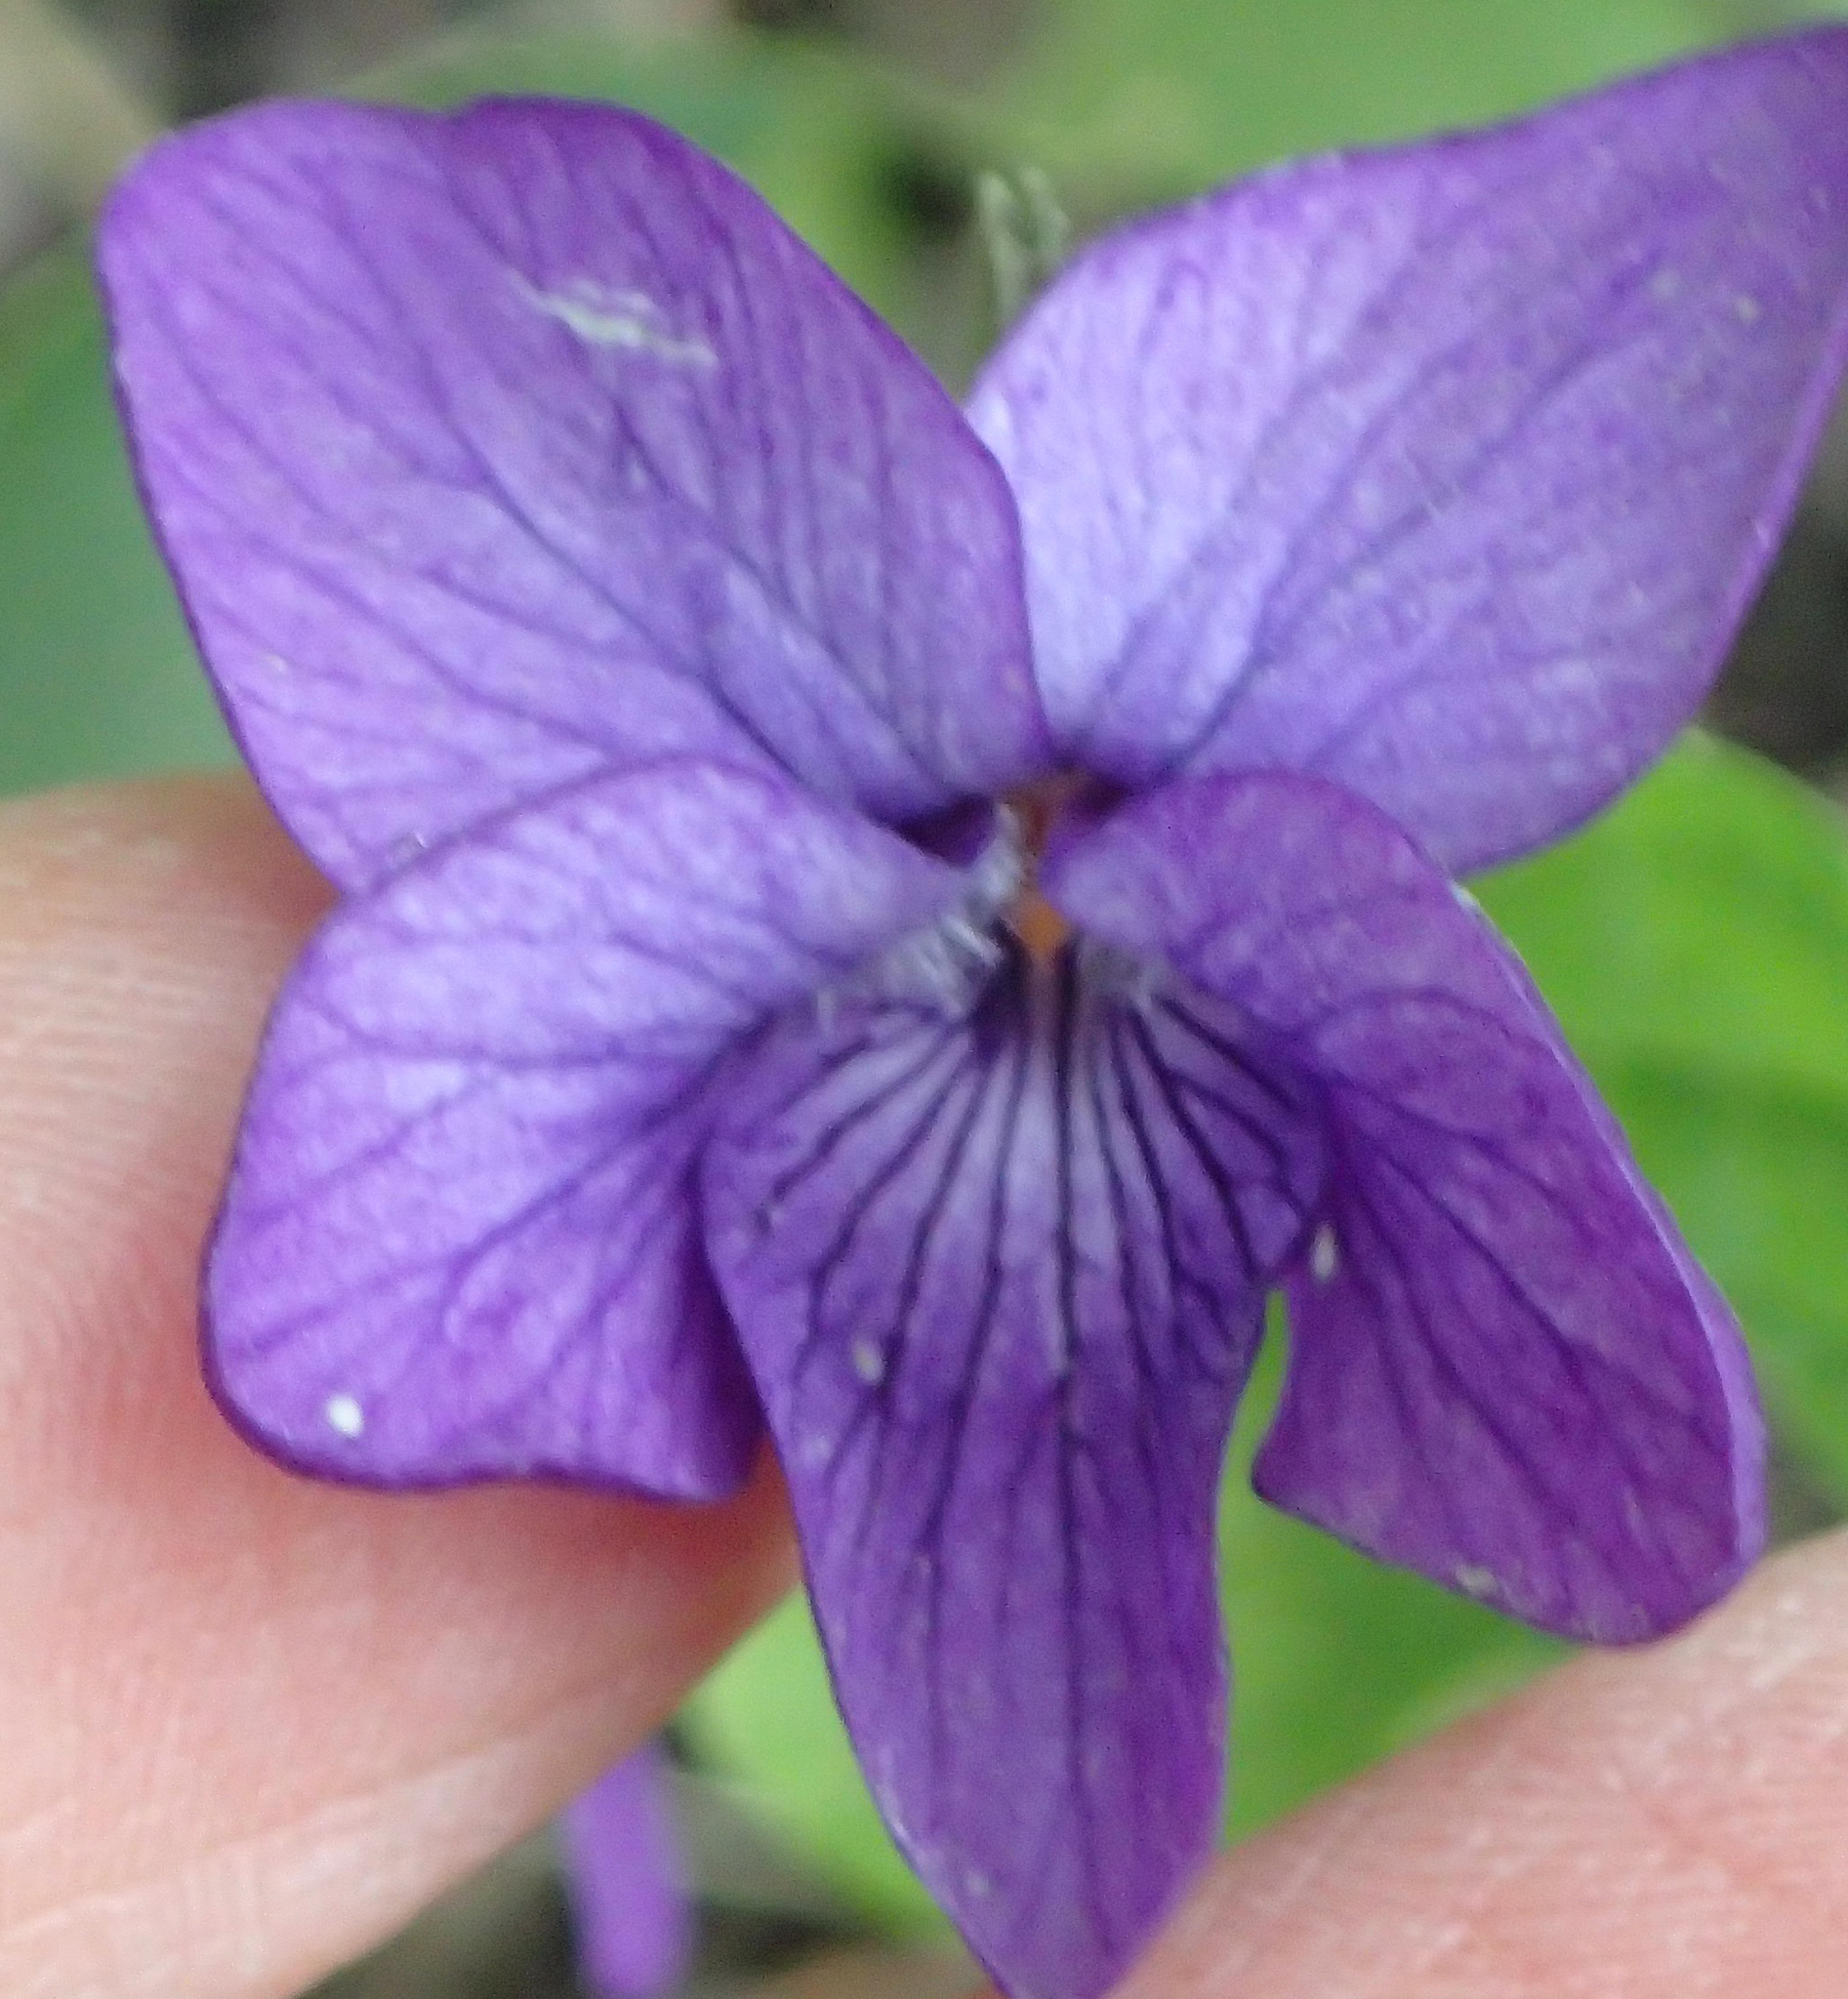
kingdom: Plantae
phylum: Tracheophyta
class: Magnoliopsida
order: Malpighiales
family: Violaceae
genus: Viola
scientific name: Viola langsdorffii
